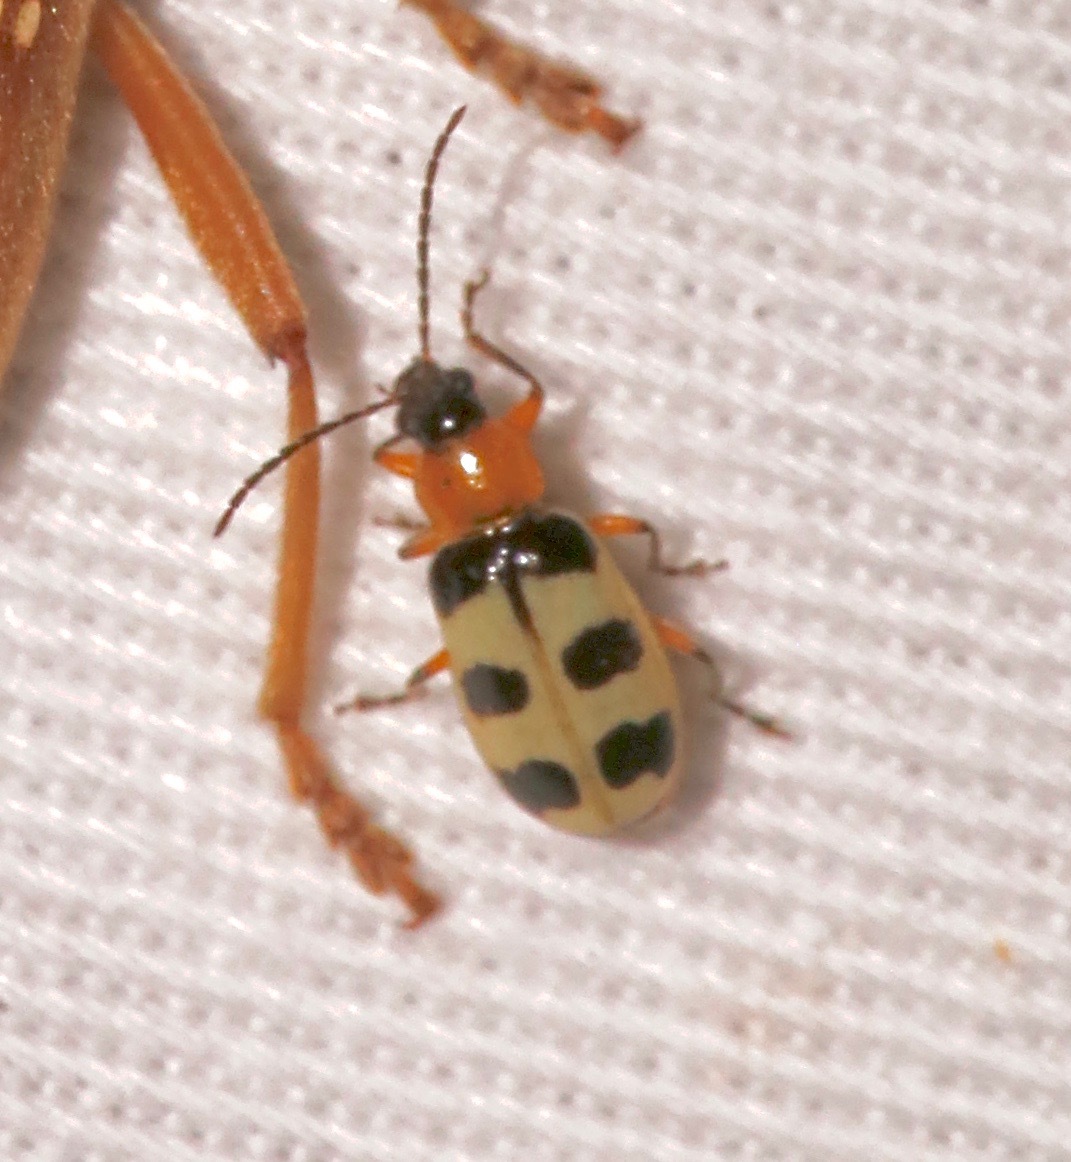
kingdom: Animalia
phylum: Arthropoda
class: Insecta
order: Coleoptera
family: Chrysomelidae
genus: Paranapiacaba
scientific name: Paranapiacaba tricincta
